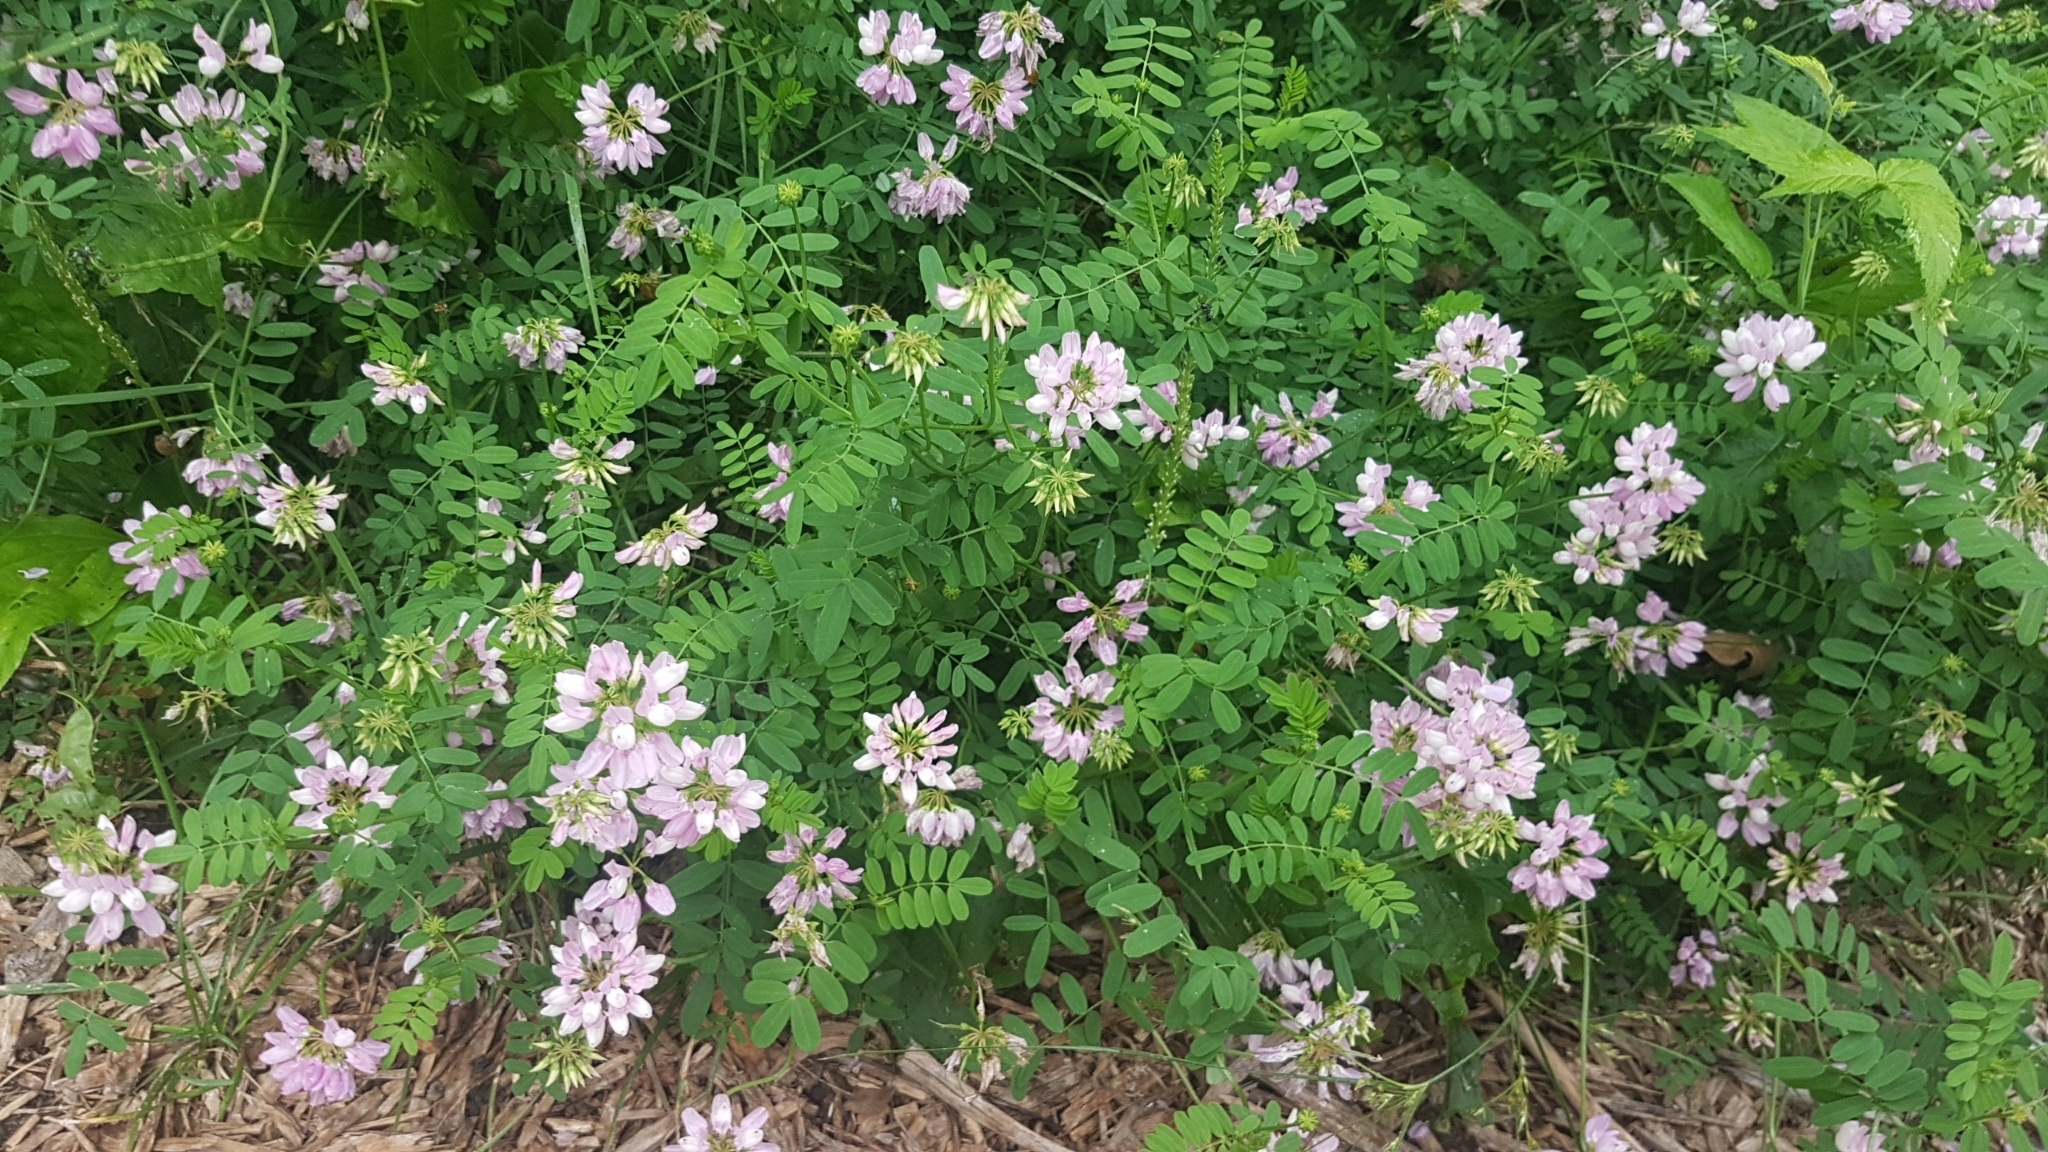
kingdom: Plantae
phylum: Tracheophyta
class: Magnoliopsida
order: Fabales
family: Fabaceae
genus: Coronilla
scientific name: Coronilla varia
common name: Crownvetch
